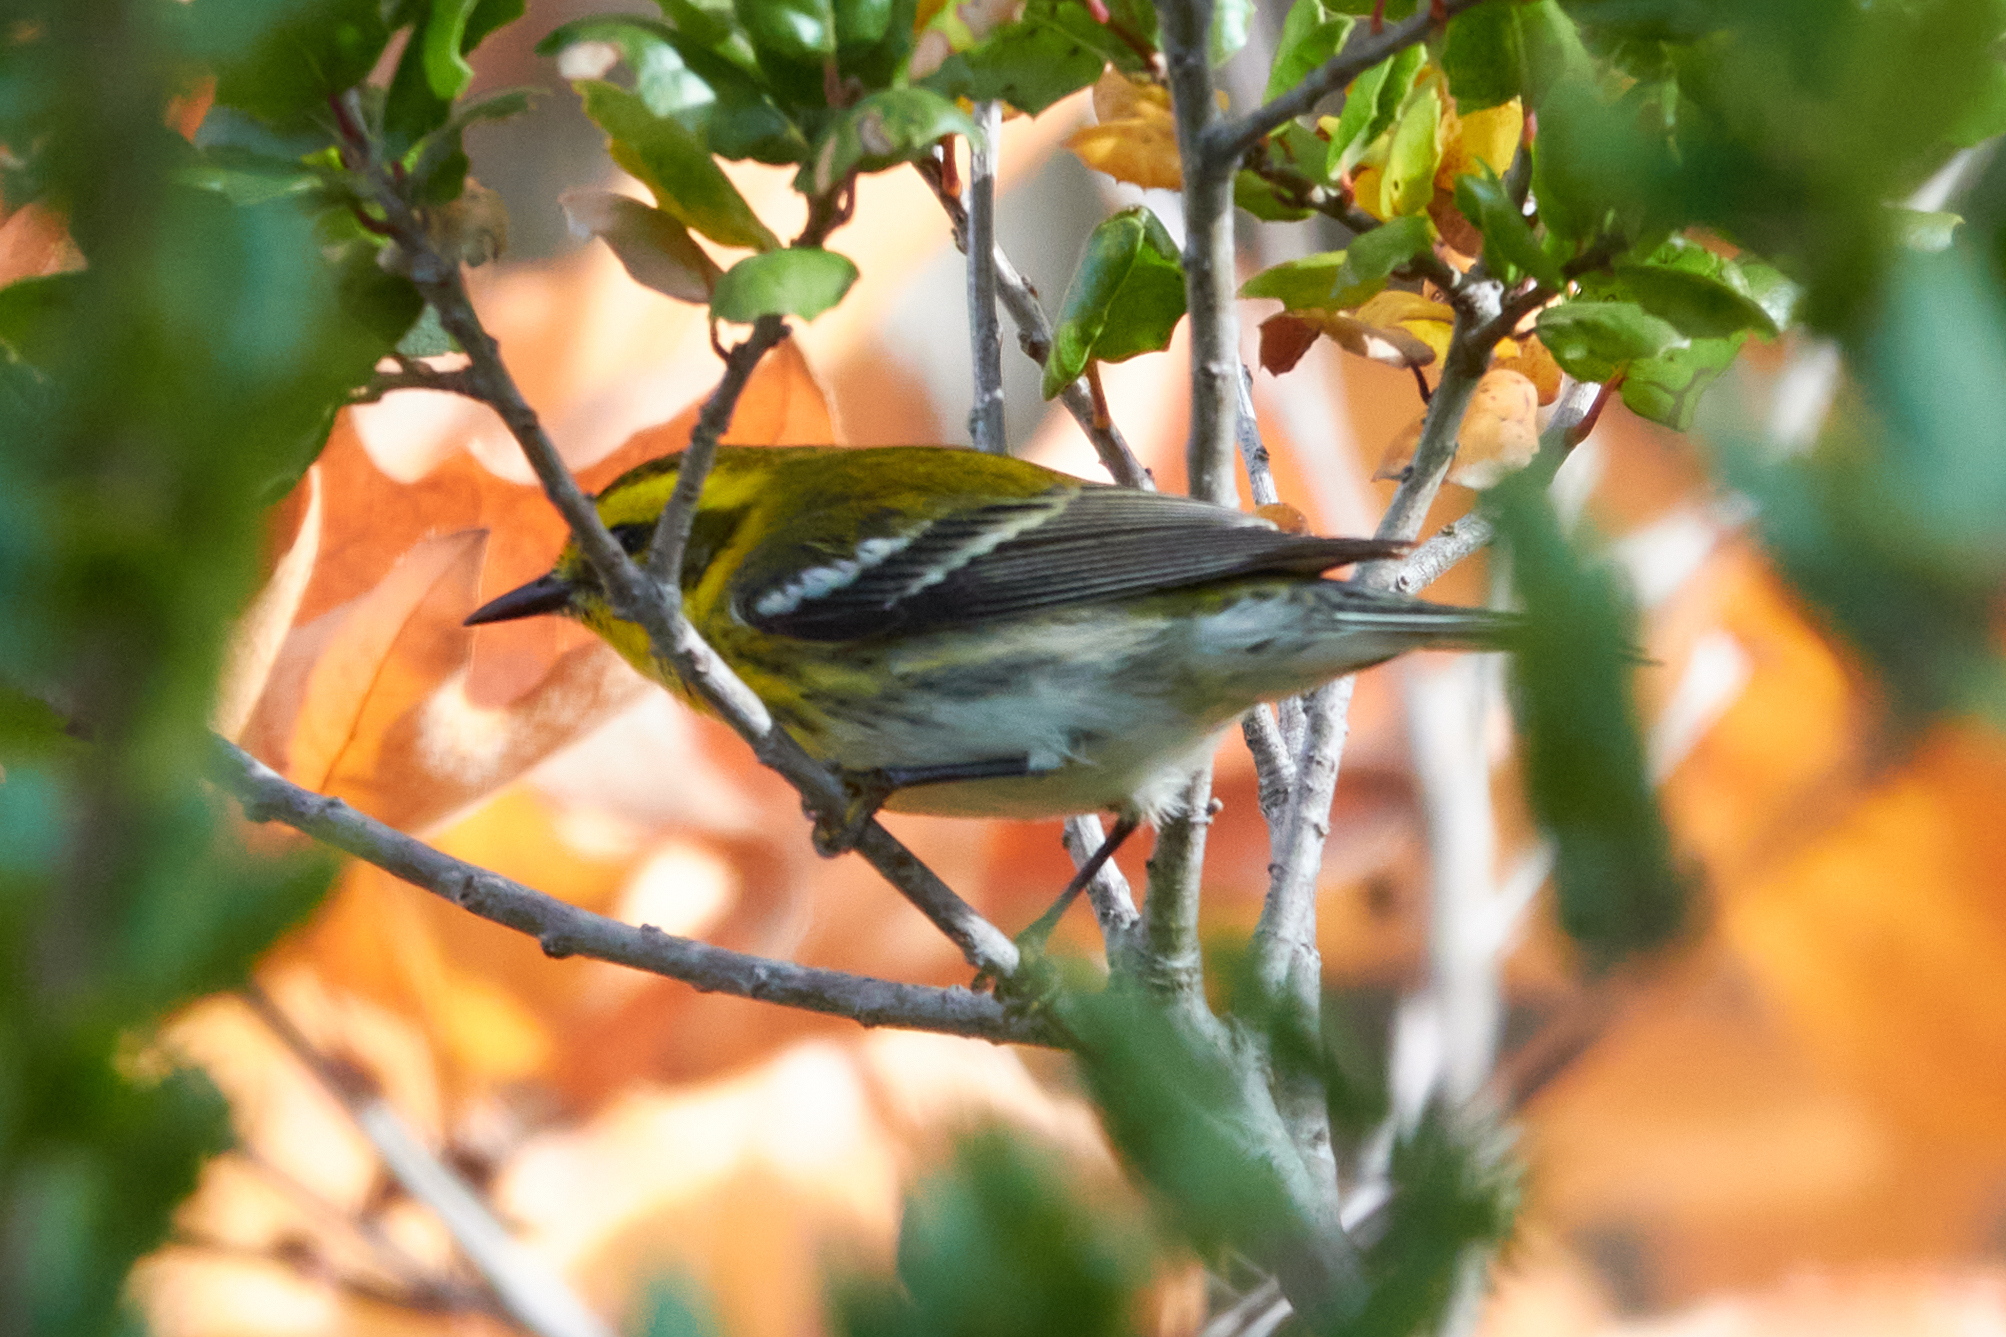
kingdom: Animalia
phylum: Chordata
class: Aves
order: Passeriformes
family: Parulidae
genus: Setophaga
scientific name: Setophaga townsendi
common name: Townsend's warbler
